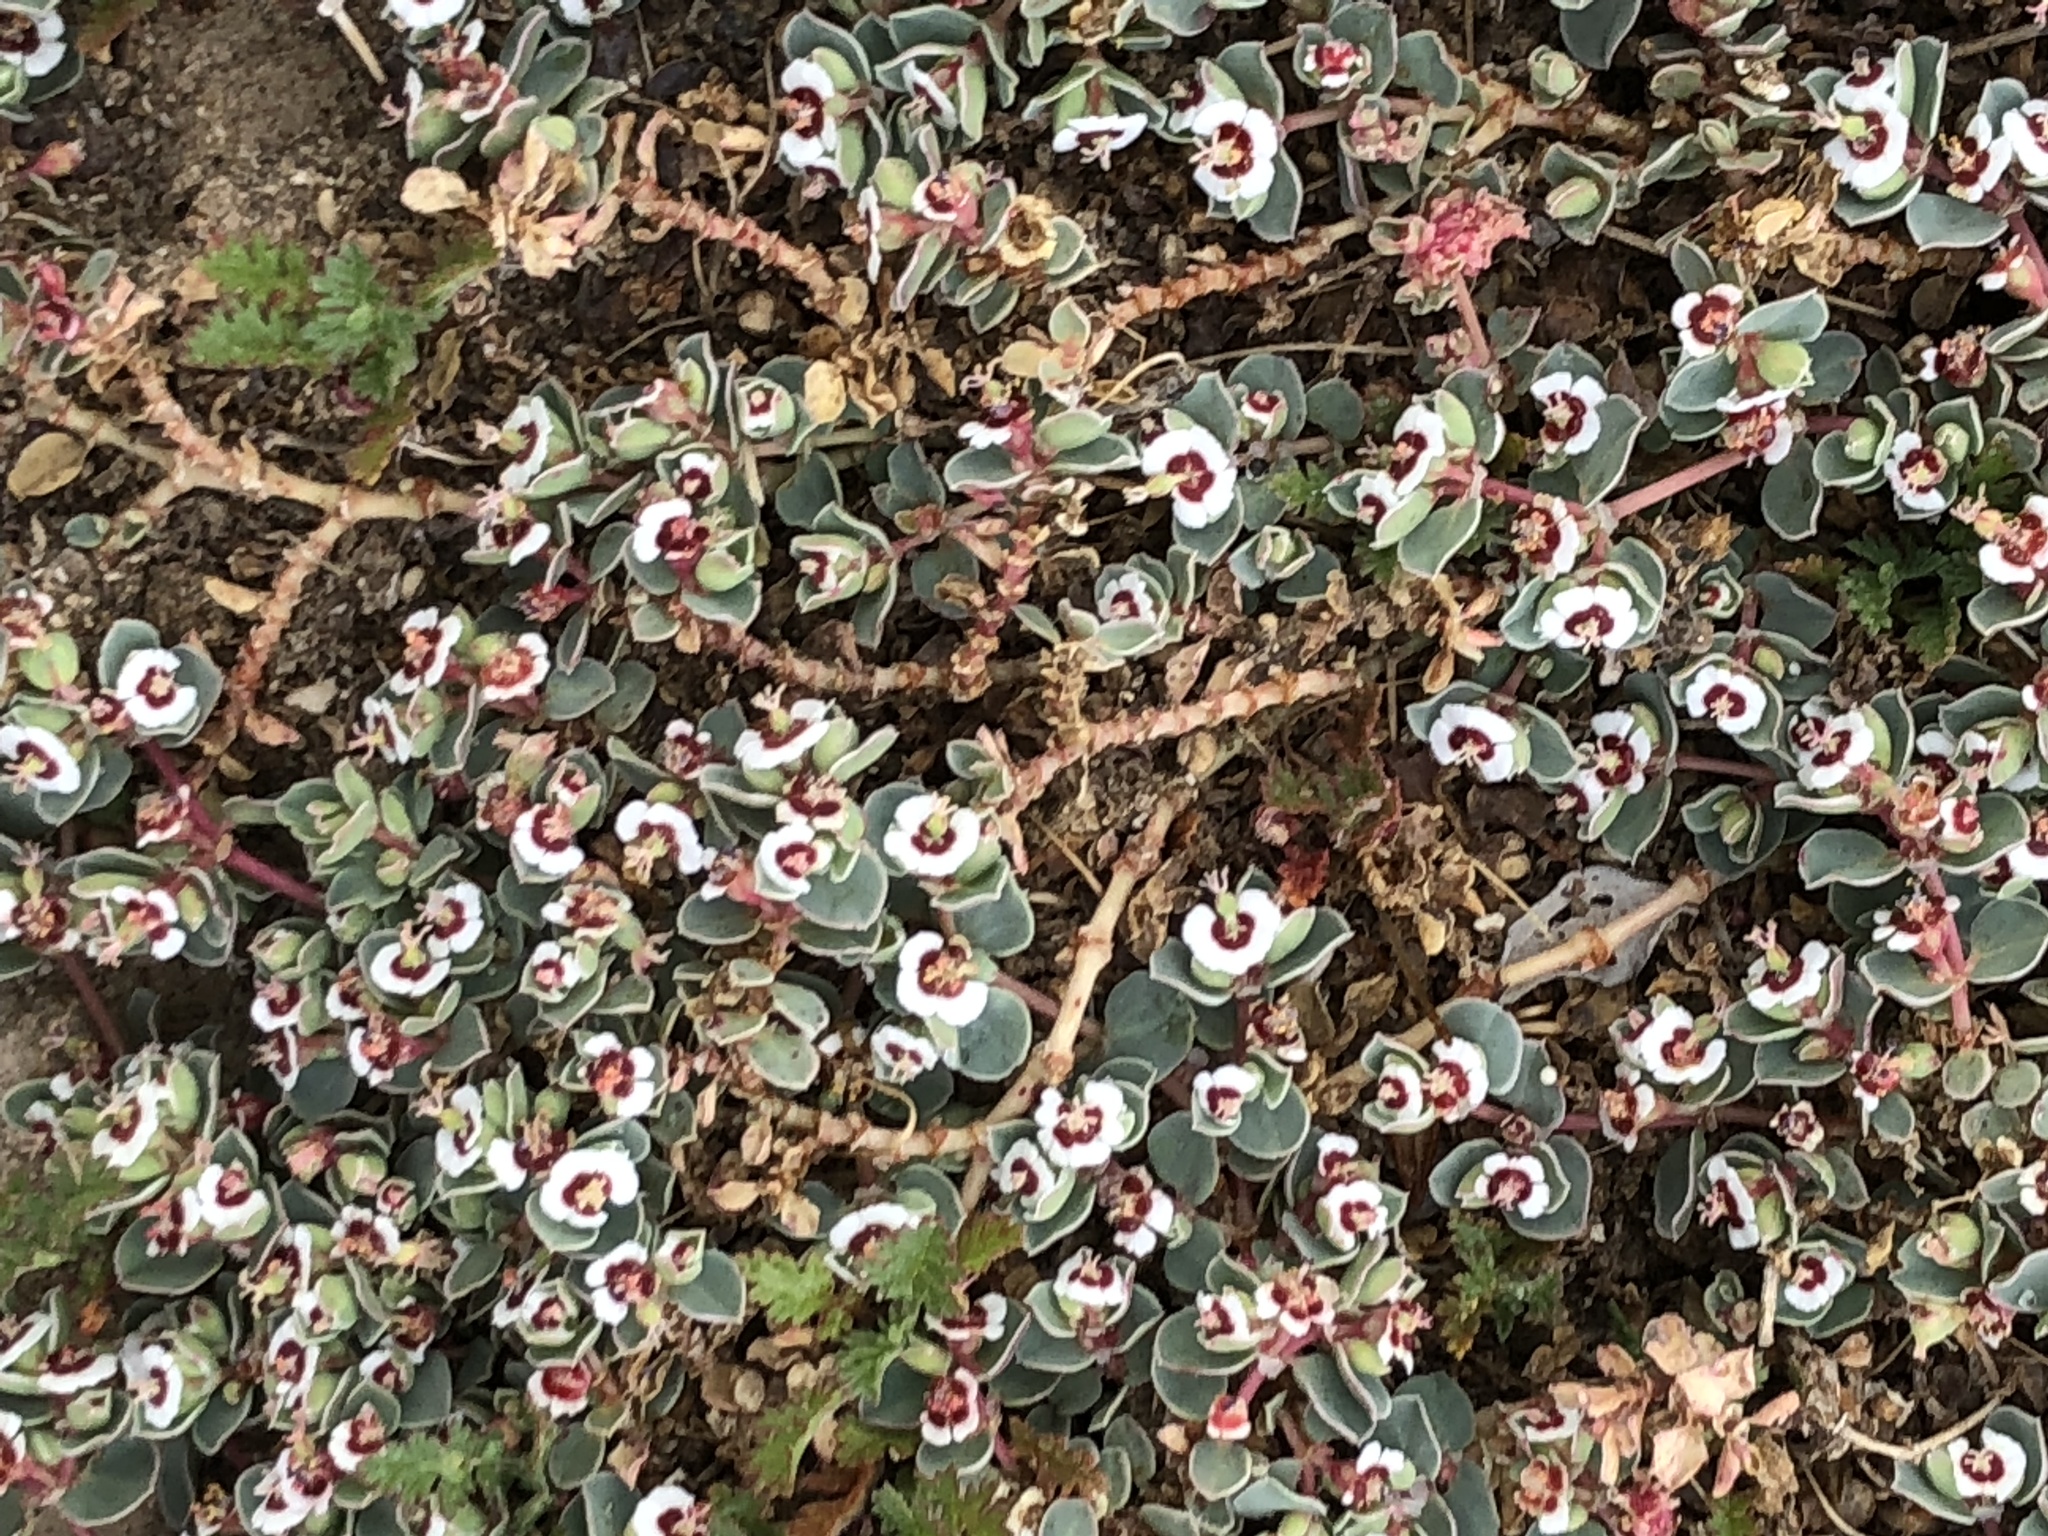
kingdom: Plantae
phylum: Tracheophyta
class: Magnoliopsida
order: Malpighiales
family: Euphorbiaceae
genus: Euphorbia
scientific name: Euphorbia albomarginata
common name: Whitemargin sandmat
